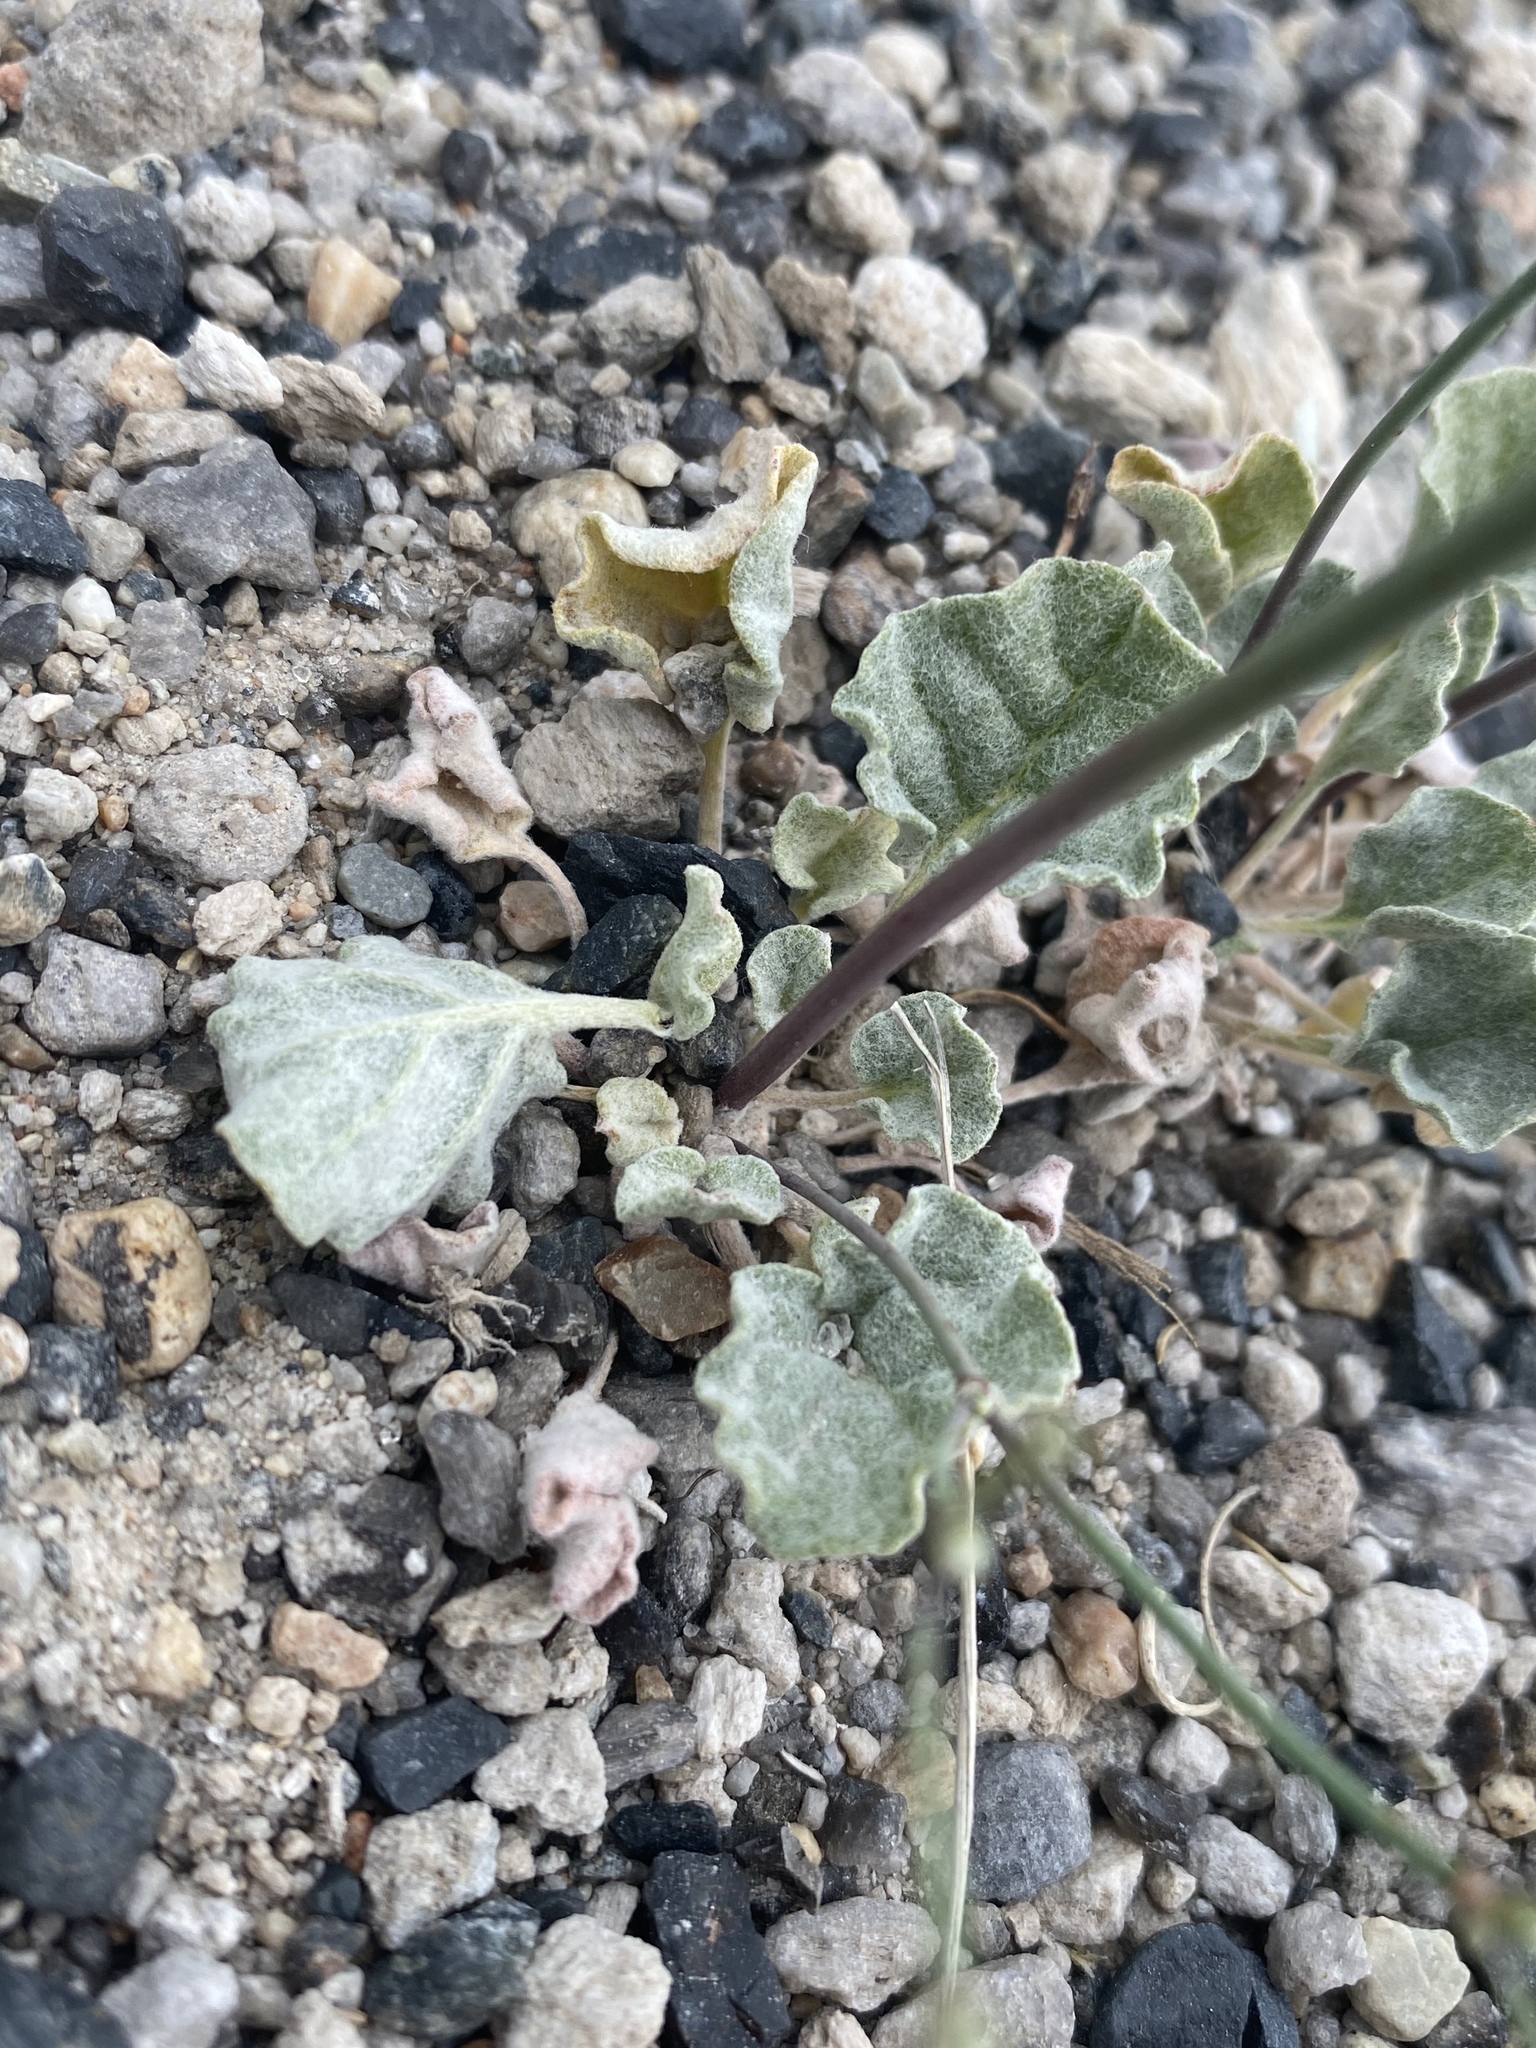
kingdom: Plantae
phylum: Tracheophyta
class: Magnoliopsida
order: Caryophyllales
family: Polygonaceae
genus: Eriogonum
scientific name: Eriogonum baileyi
